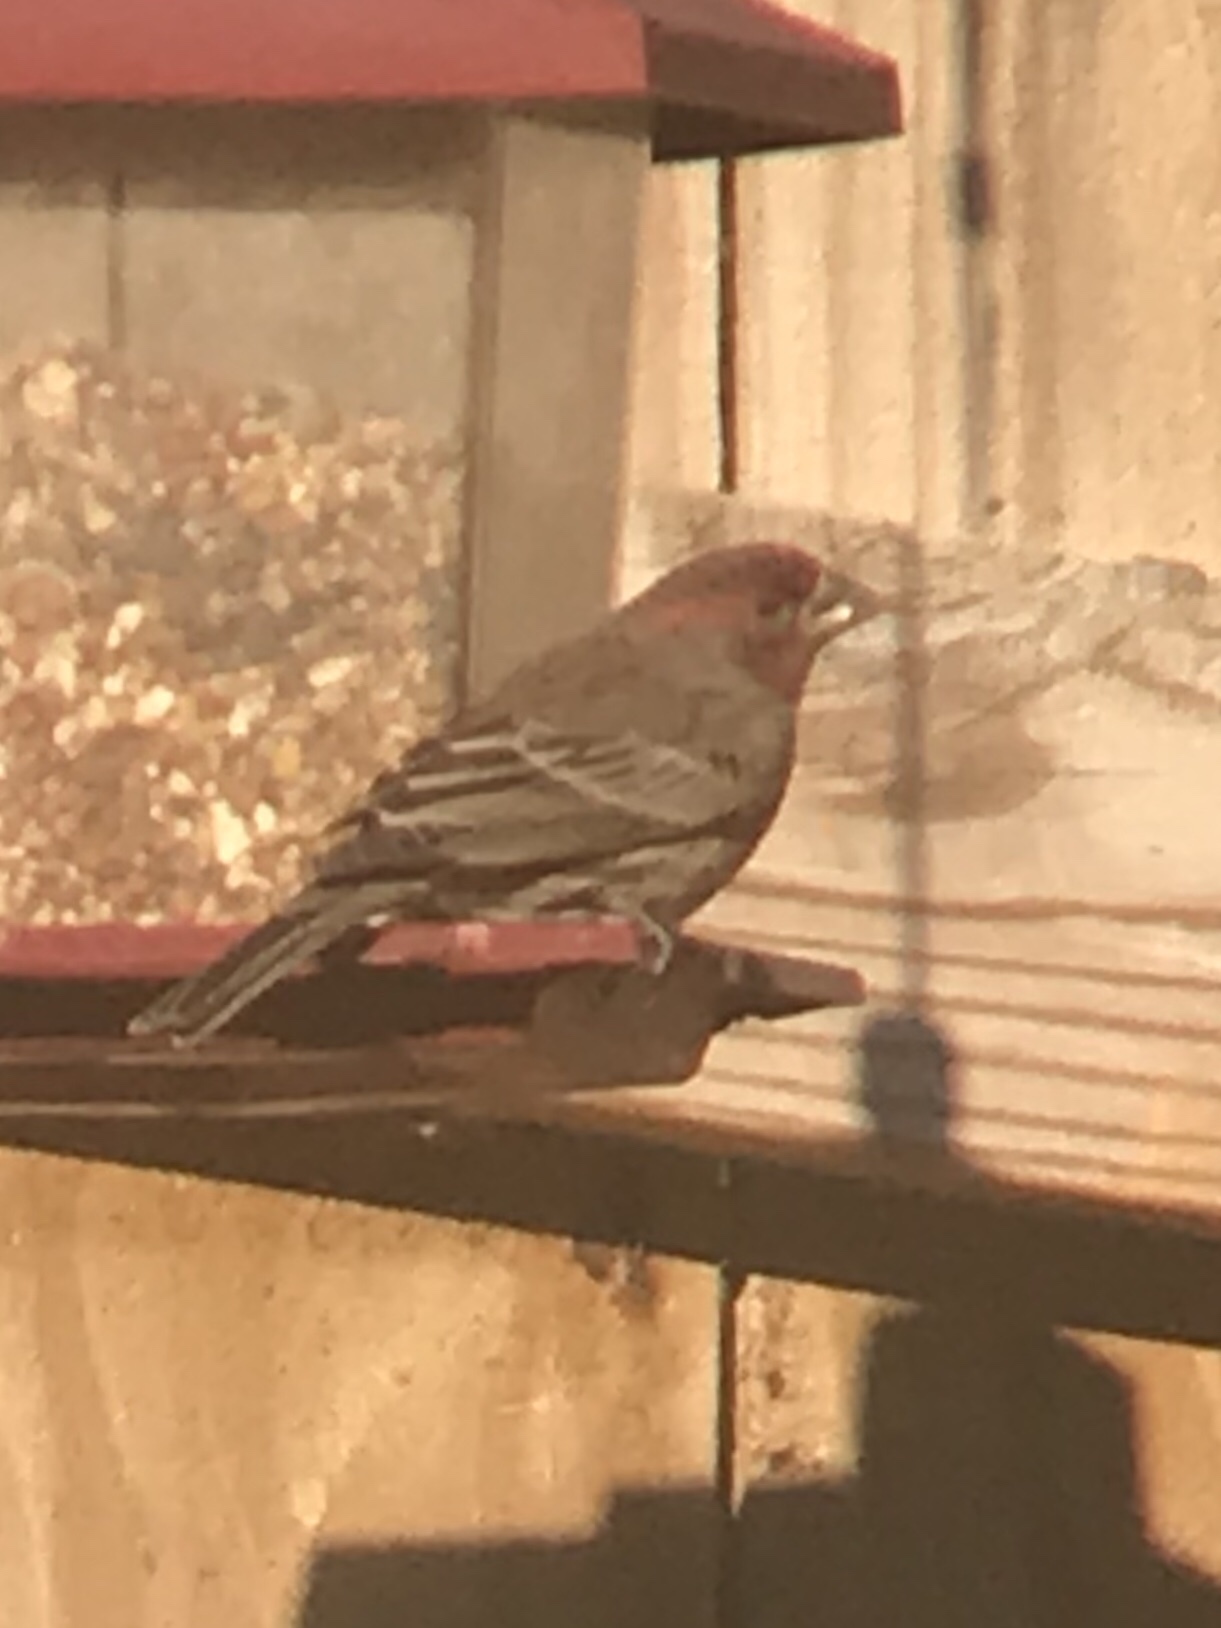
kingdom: Animalia
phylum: Chordata
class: Aves
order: Passeriformes
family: Fringillidae
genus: Haemorhous
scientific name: Haemorhous mexicanus
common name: House finch
